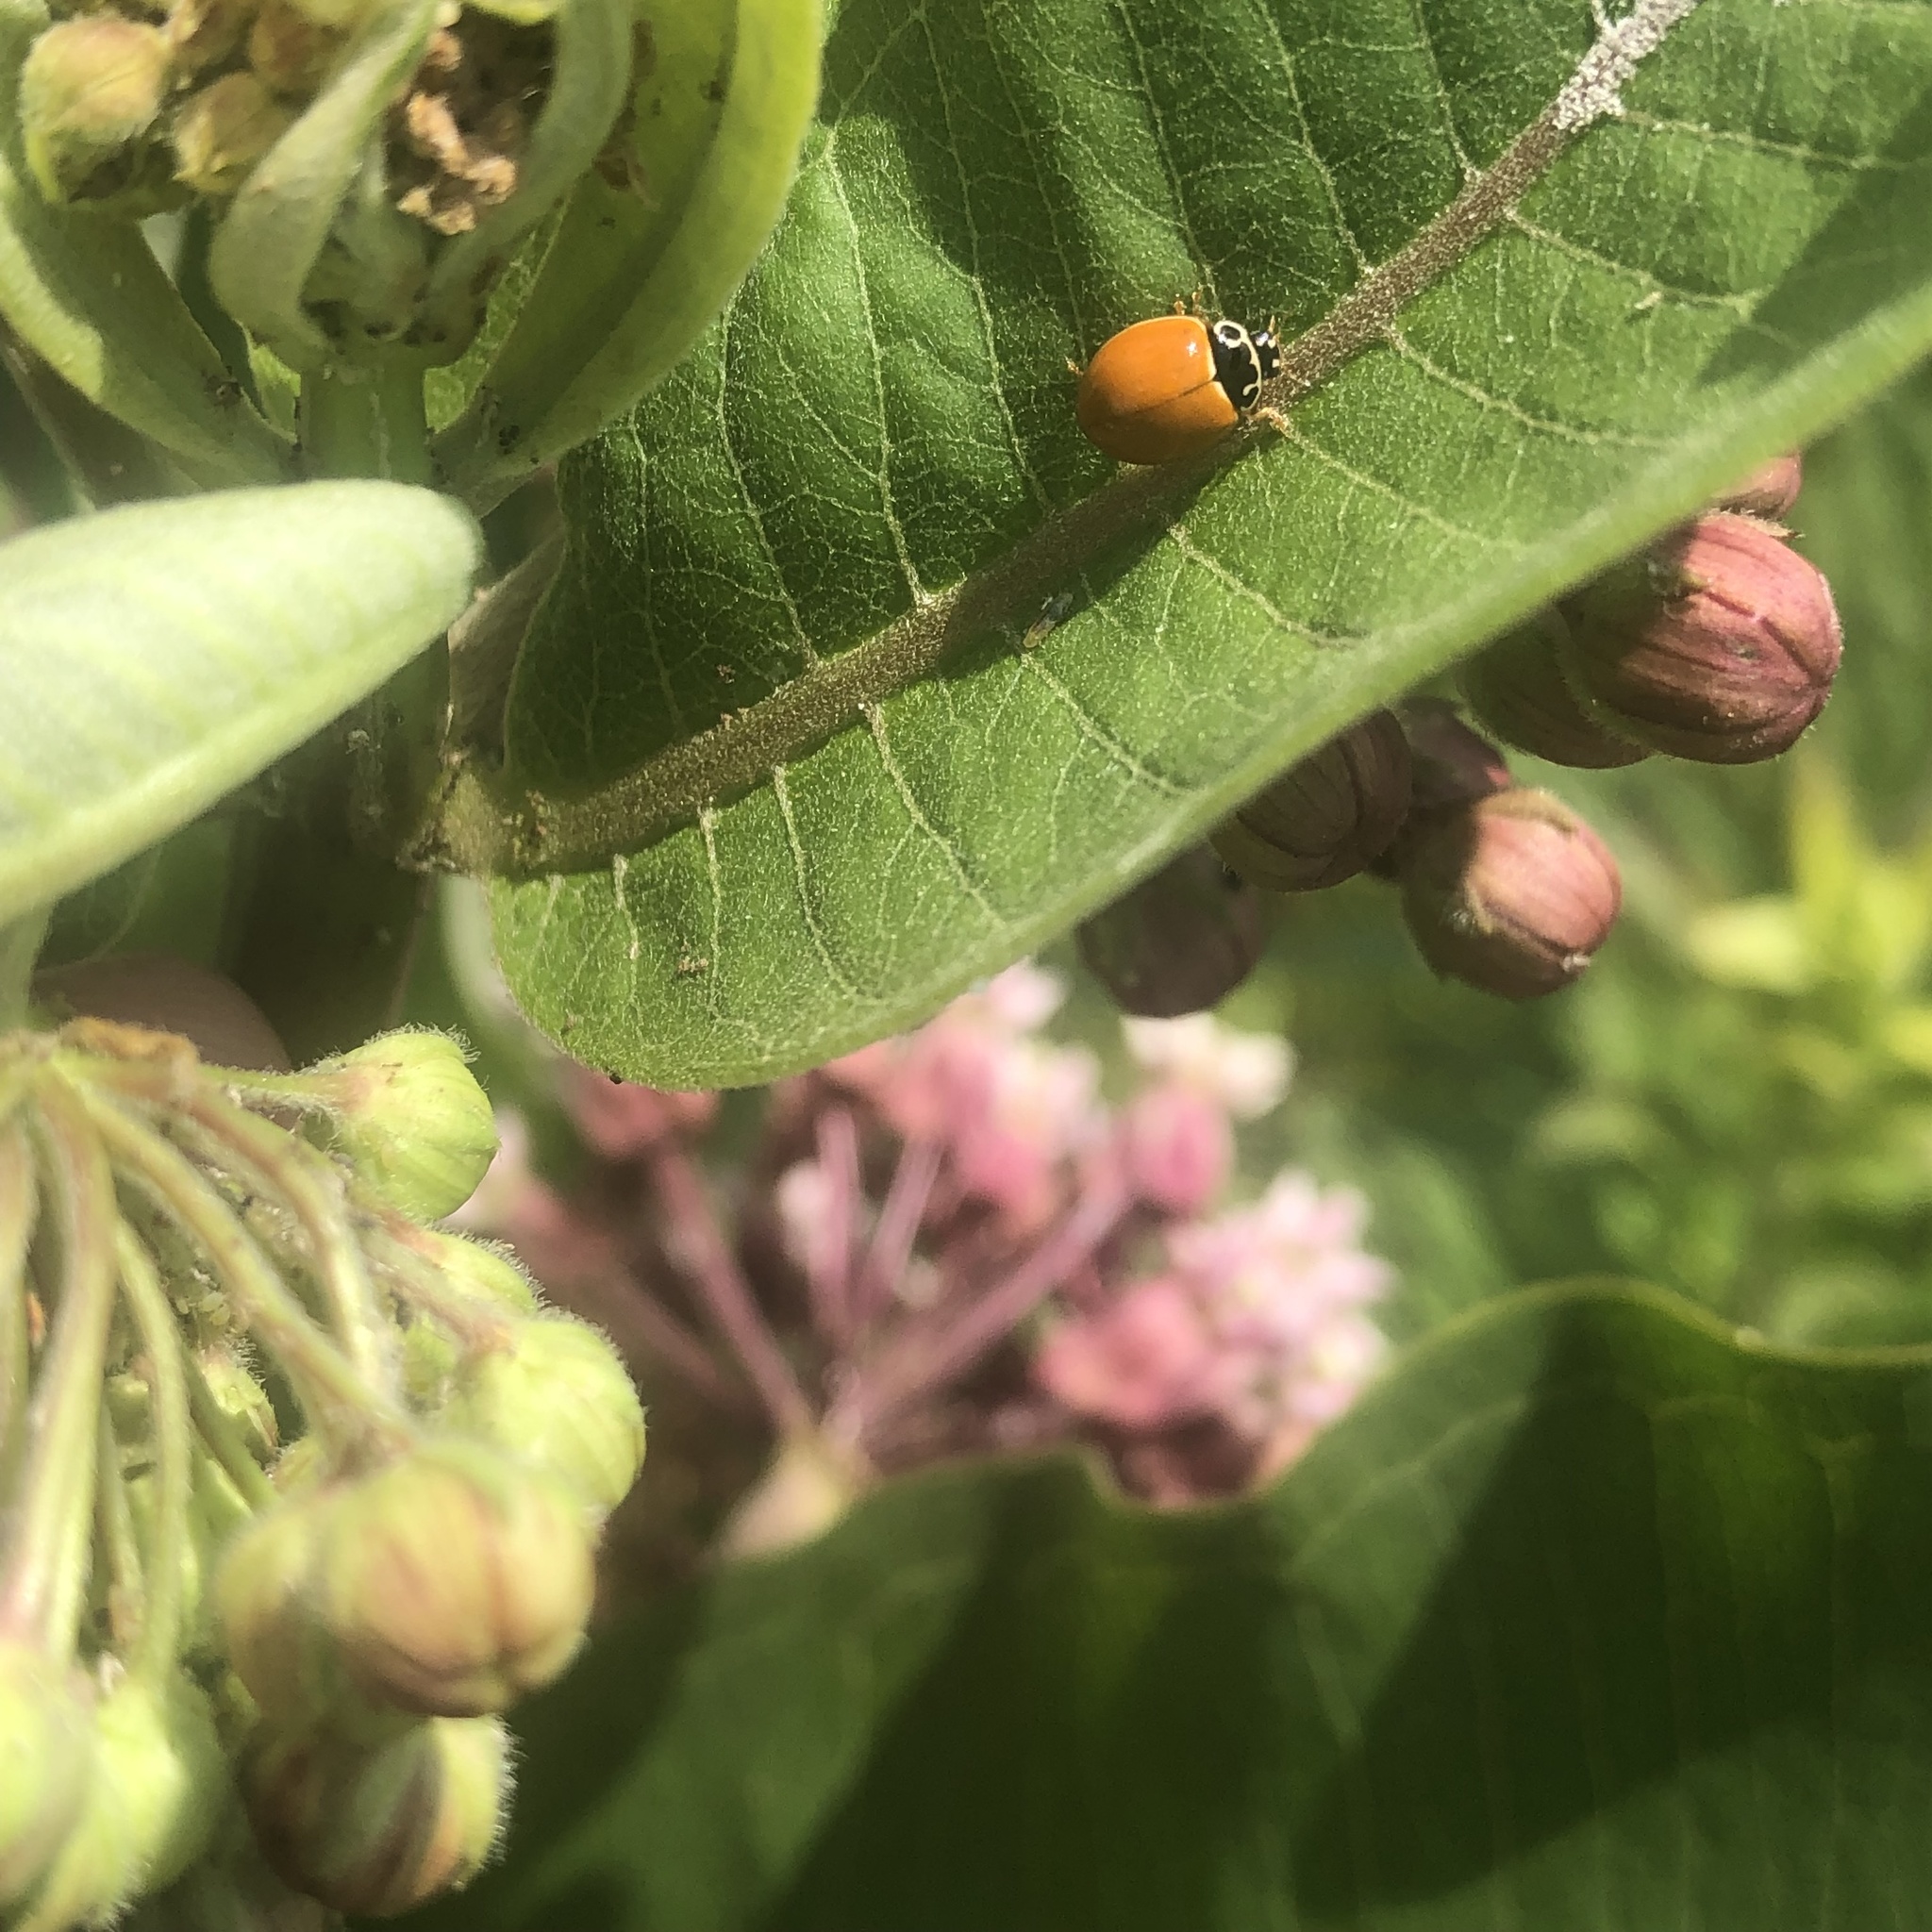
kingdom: Animalia
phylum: Arthropoda
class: Insecta
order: Coleoptera
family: Coccinellidae
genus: Cycloneda
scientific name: Cycloneda munda
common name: Polished lady beetle
